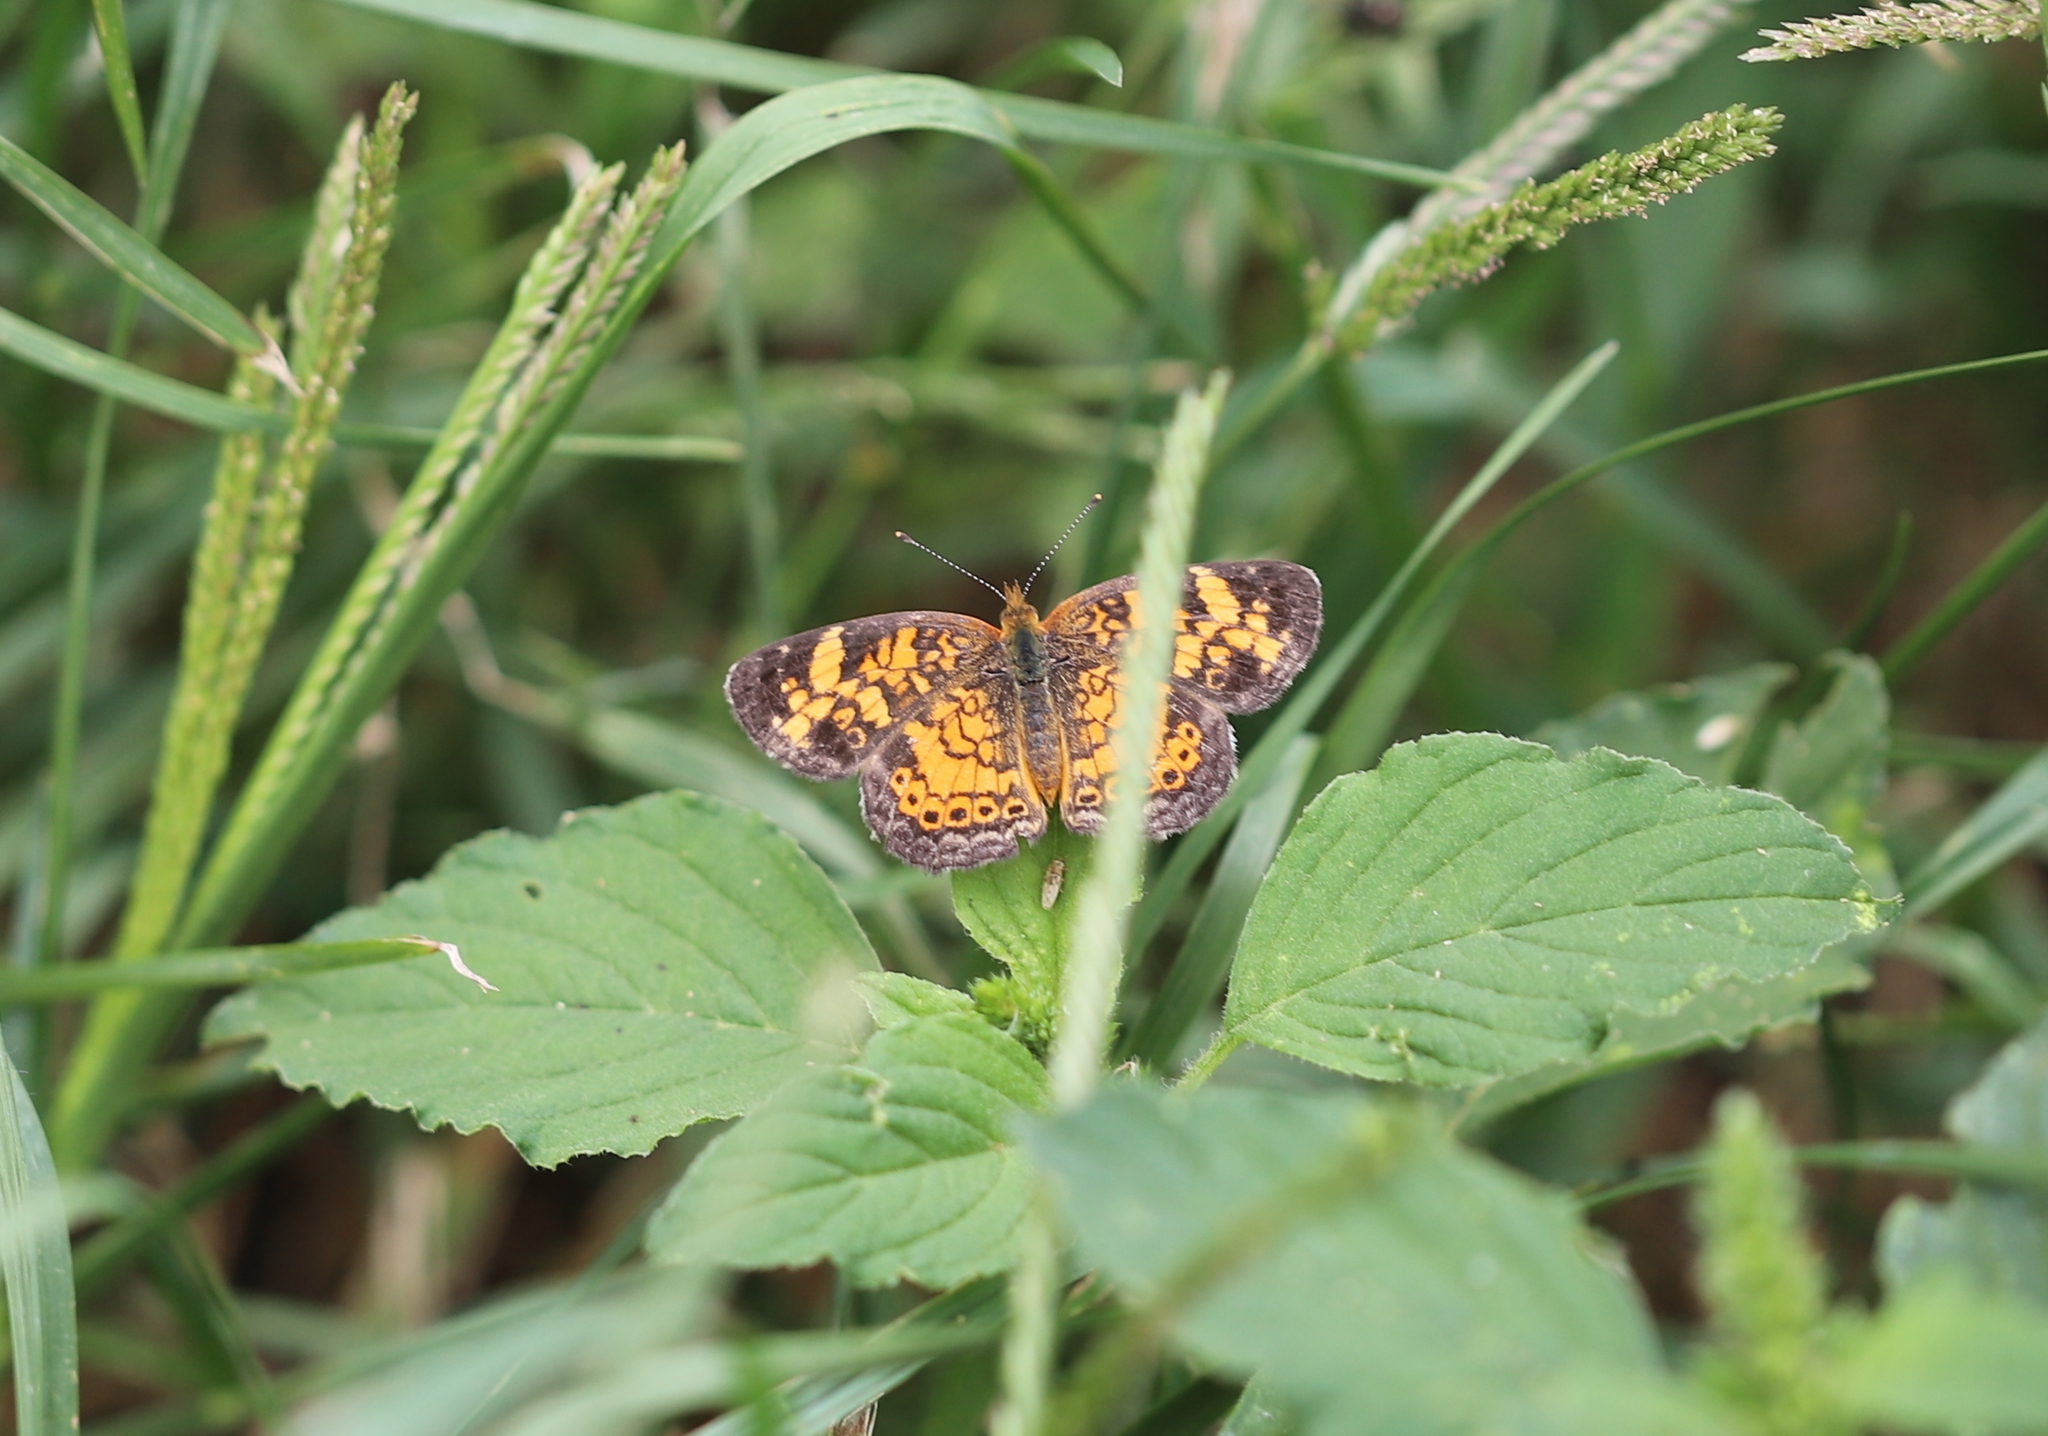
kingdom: Animalia
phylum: Arthropoda
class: Insecta
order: Lepidoptera
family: Nymphalidae
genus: Phyciodes
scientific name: Phyciodes tharos
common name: Pearl crescent
